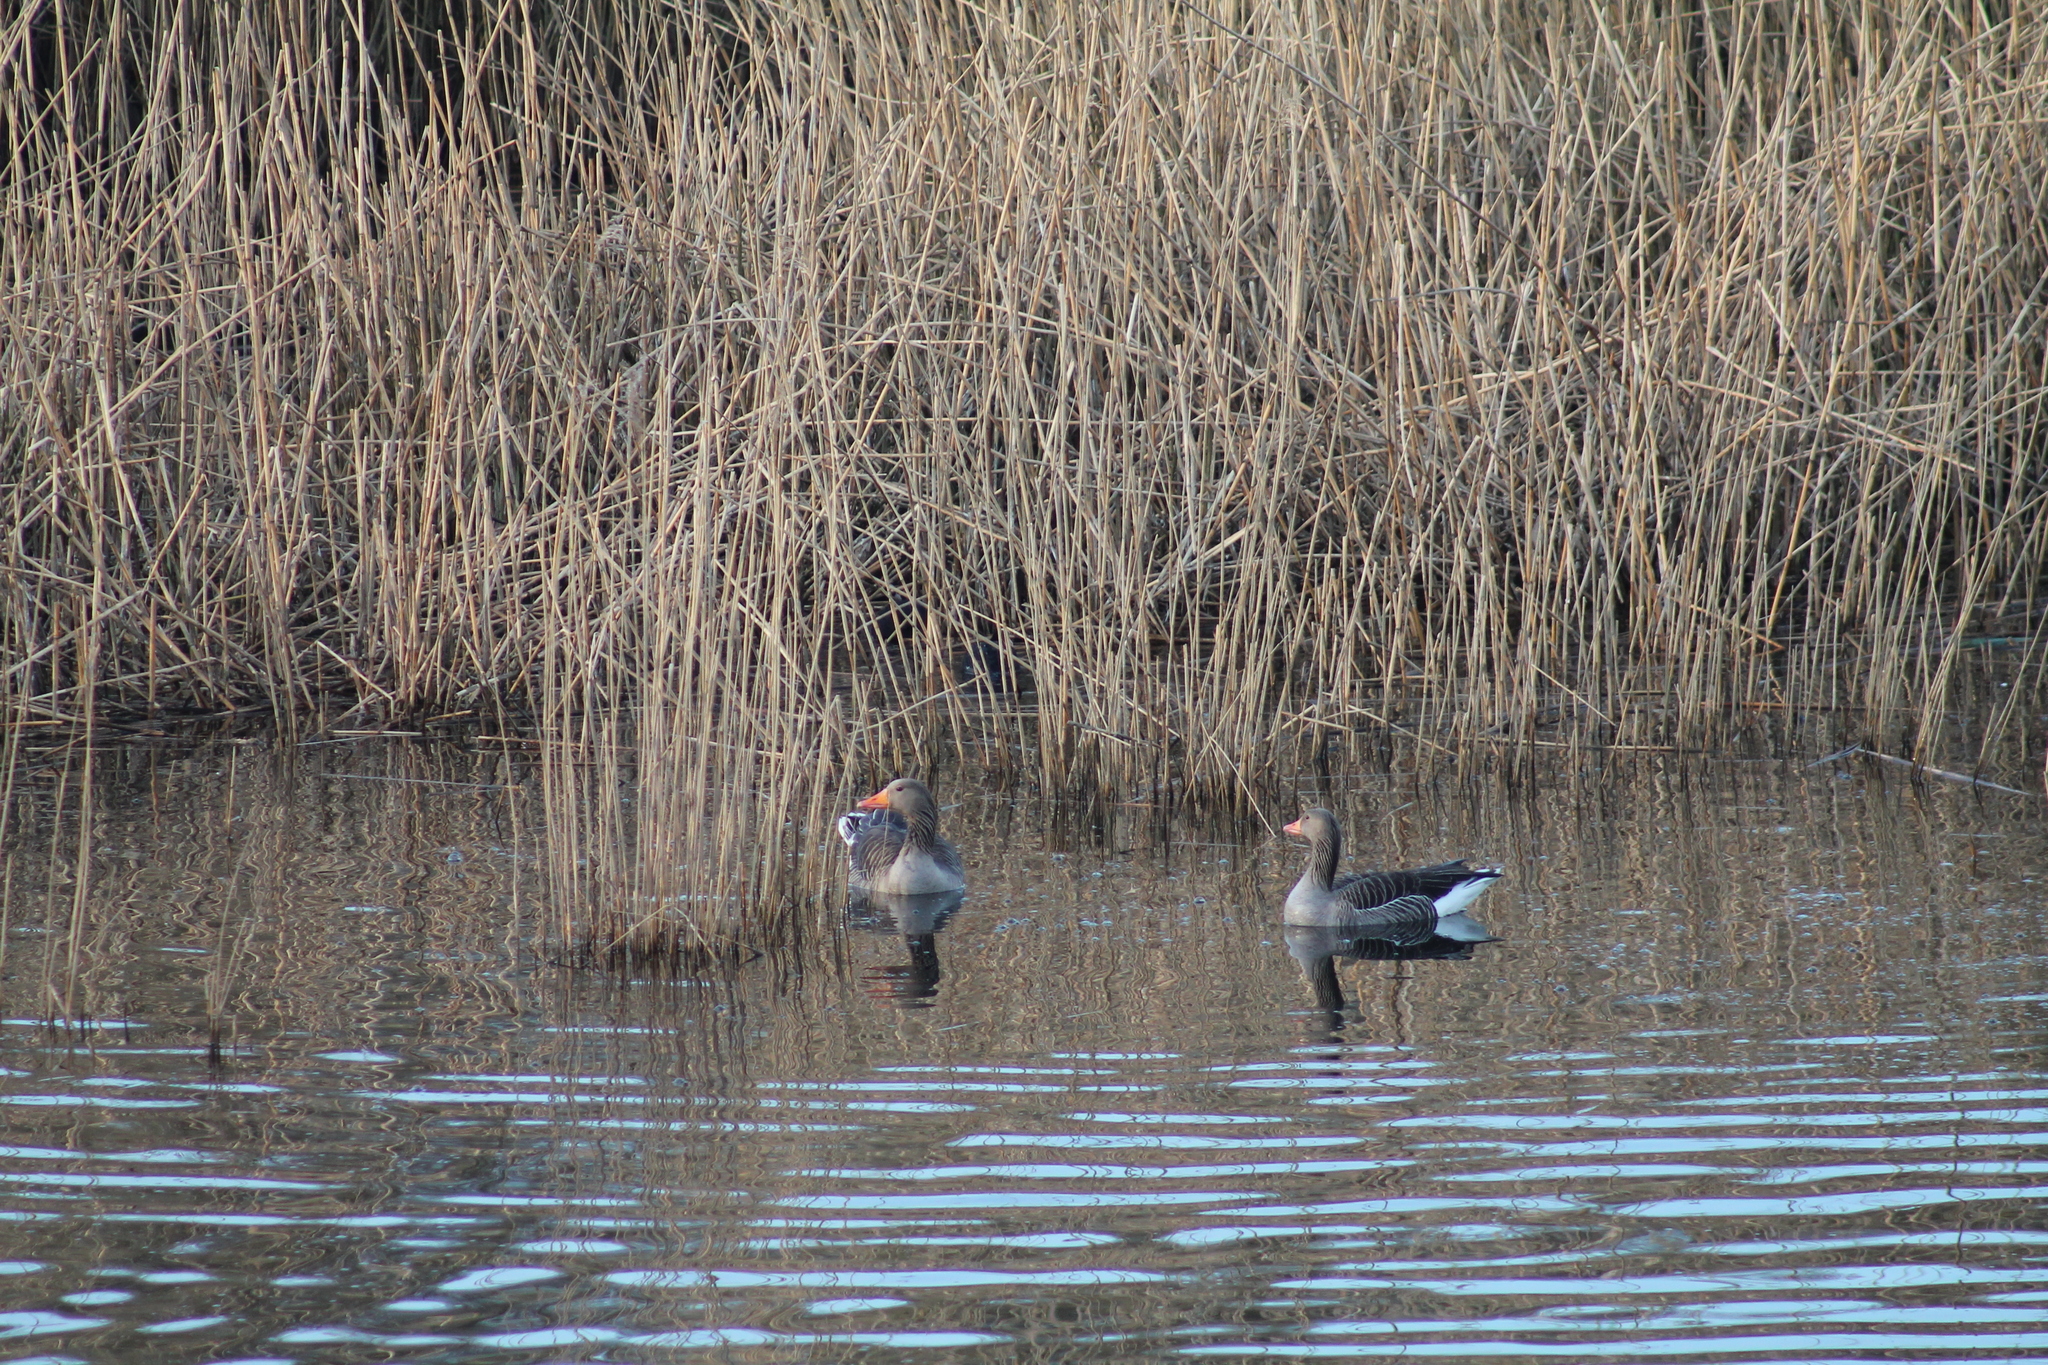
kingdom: Animalia
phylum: Chordata
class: Aves
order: Anseriformes
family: Anatidae
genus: Anser
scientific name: Anser anser
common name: Greylag goose
